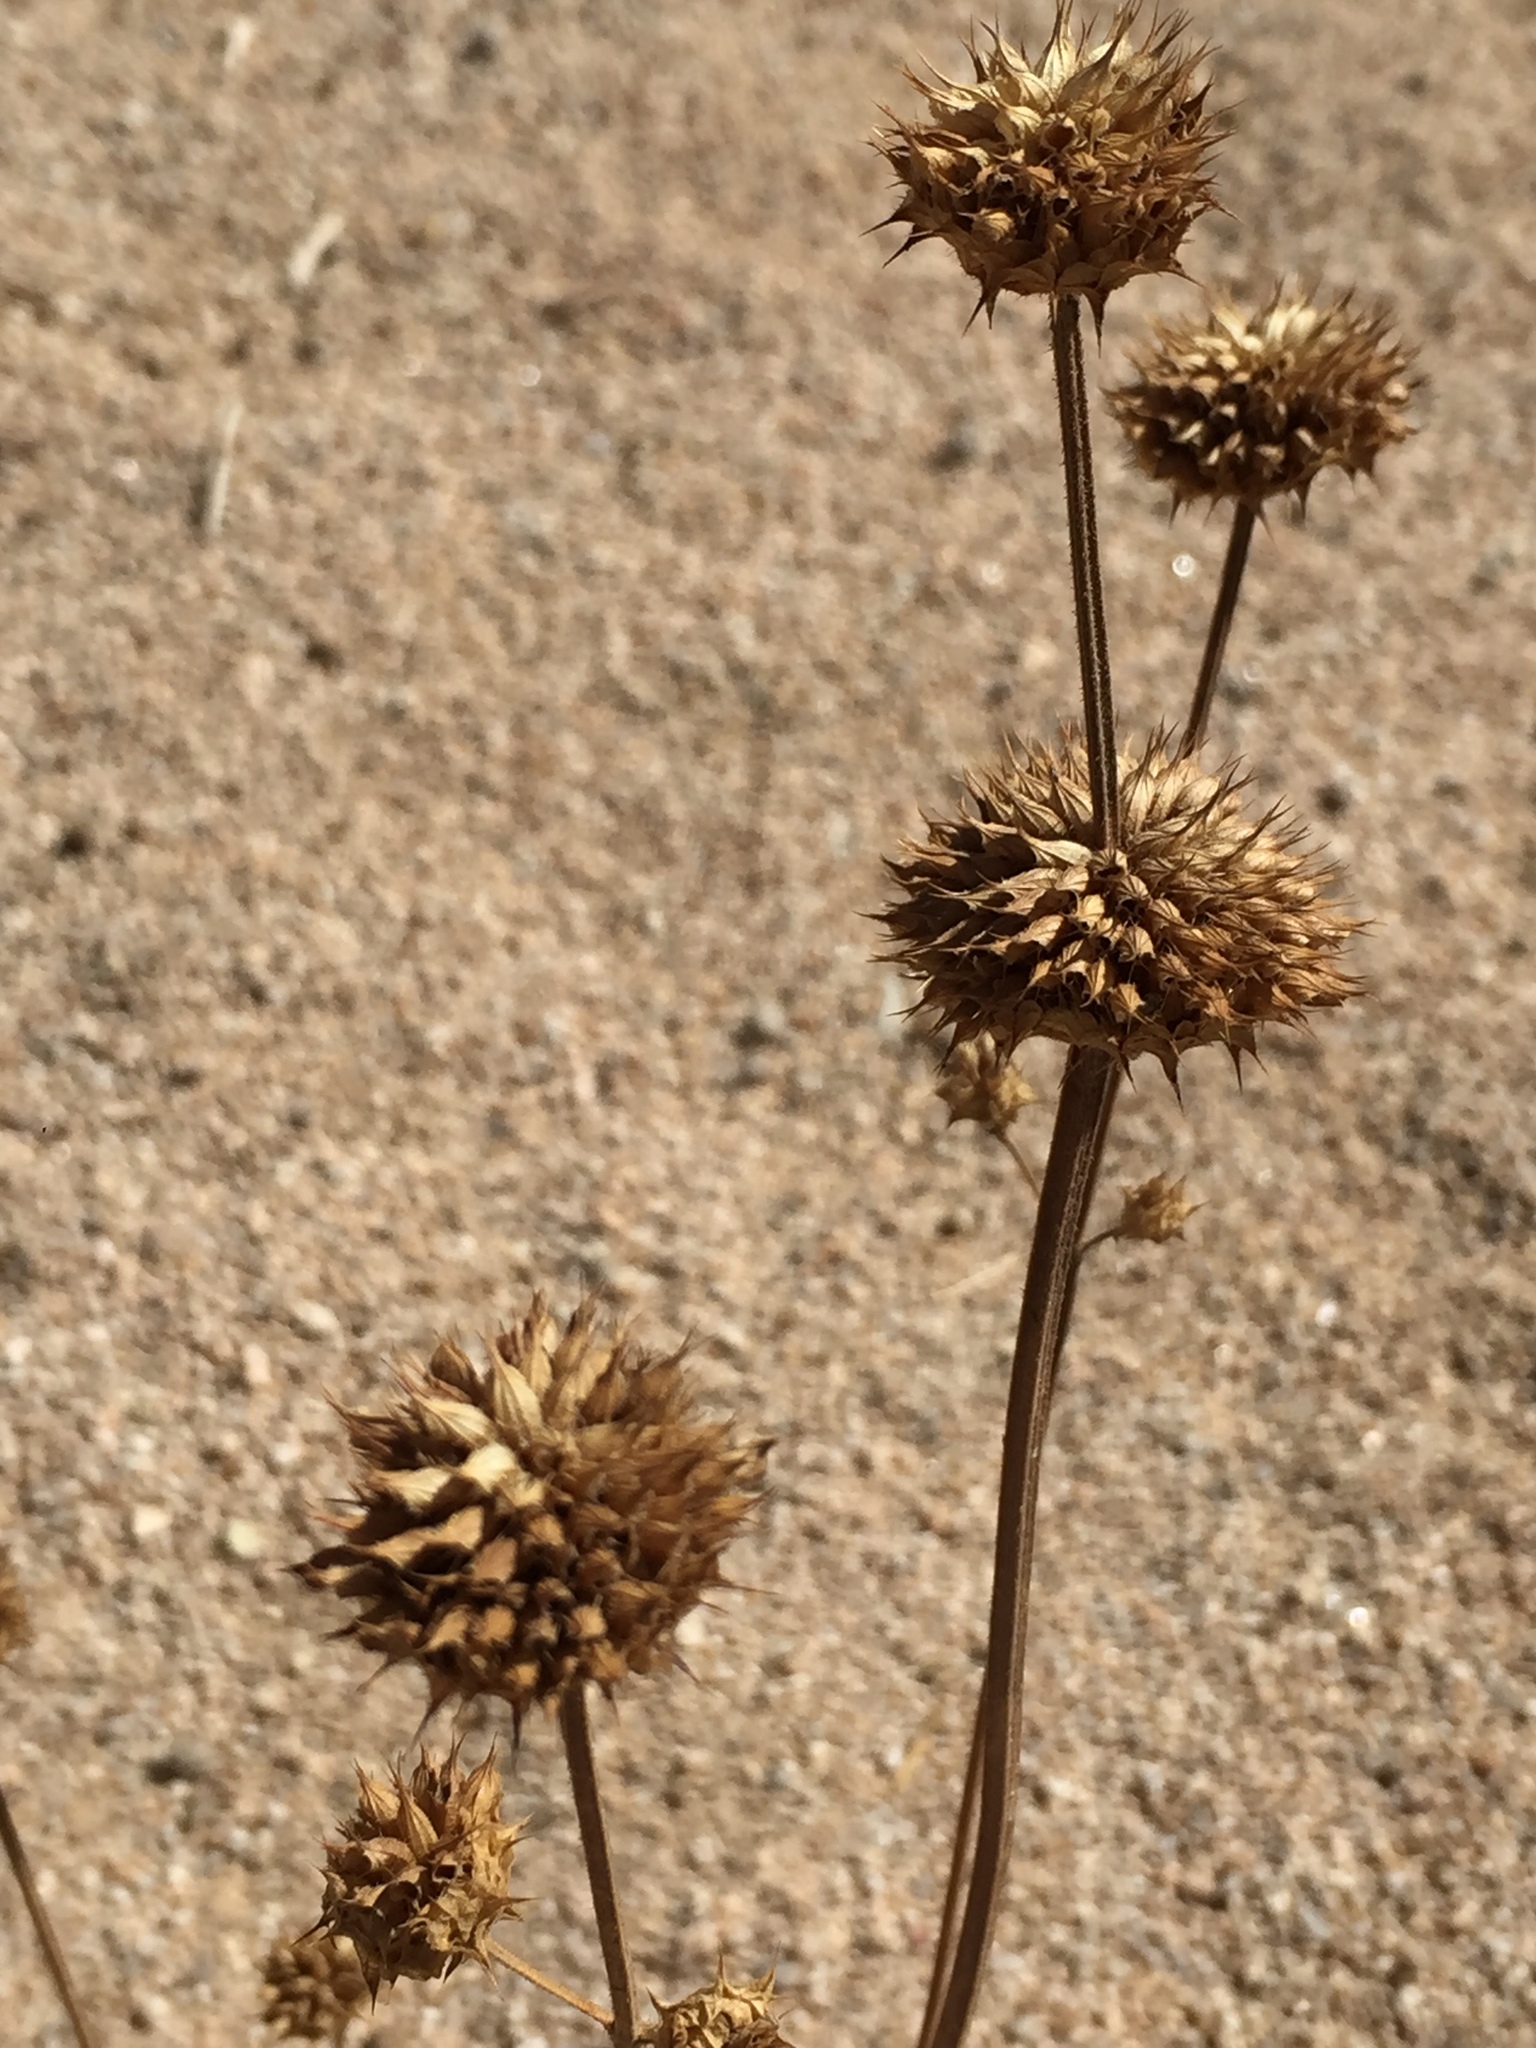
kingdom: Plantae
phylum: Tracheophyta
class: Magnoliopsida
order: Lamiales
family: Lamiaceae
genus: Salvia
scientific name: Salvia columbariae
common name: Chia
